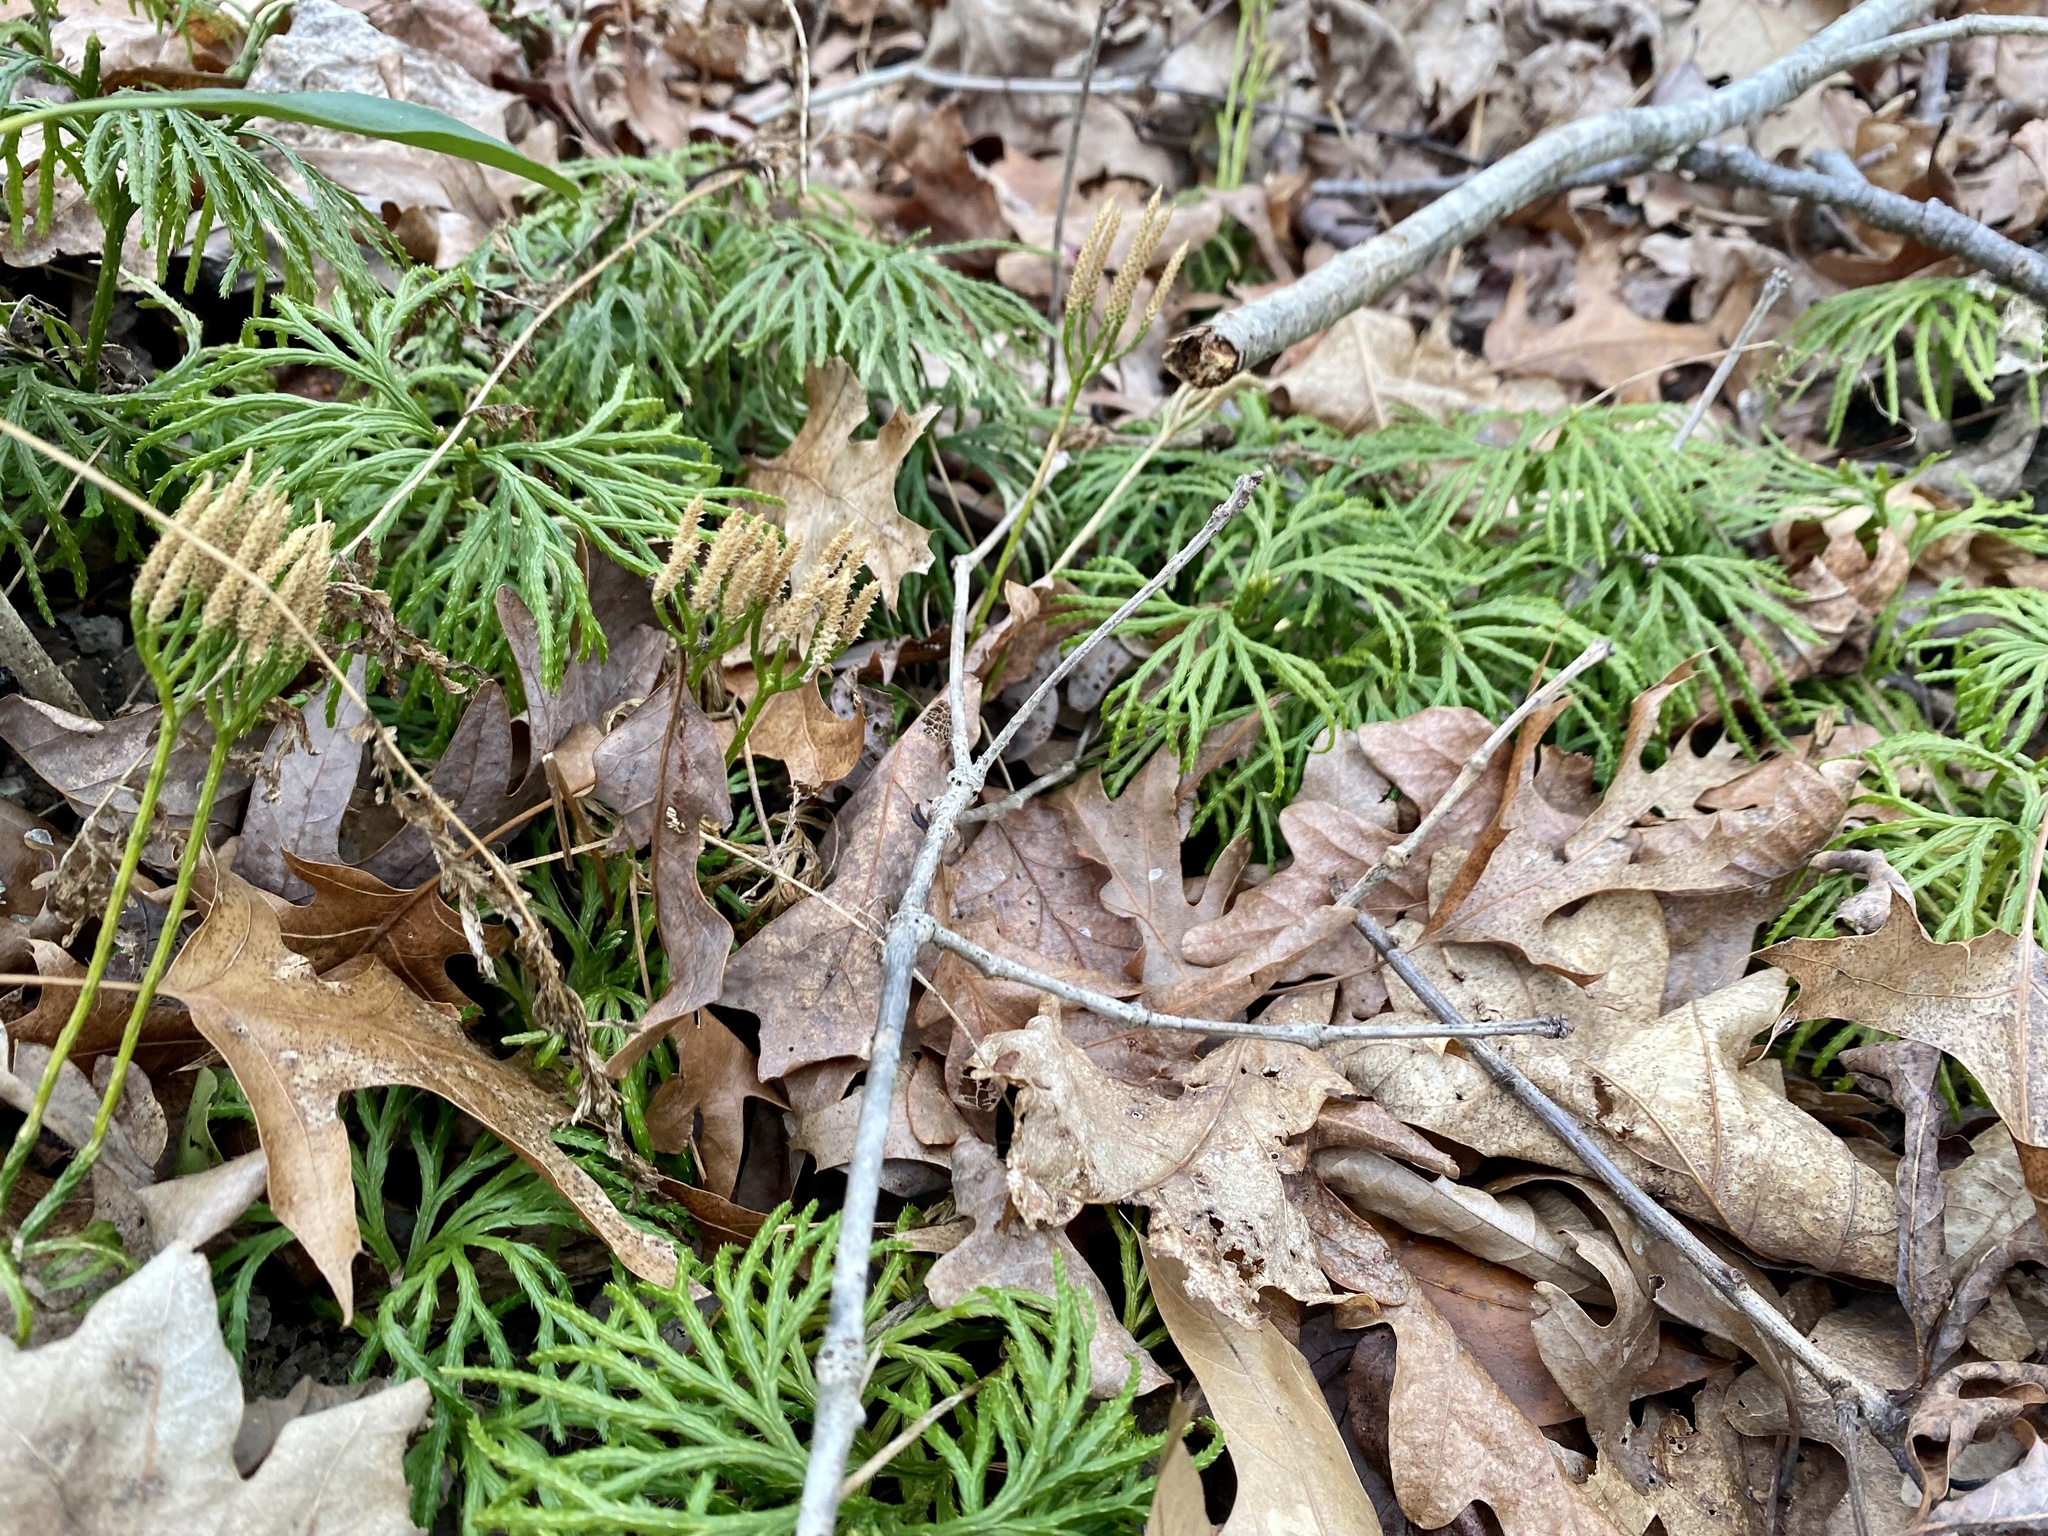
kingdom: Plantae
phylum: Tracheophyta
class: Lycopodiopsida
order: Lycopodiales
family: Lycopodiaceae
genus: Diphasiastrum
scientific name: Diphasiastrum digitatum
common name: Southern running-pine
